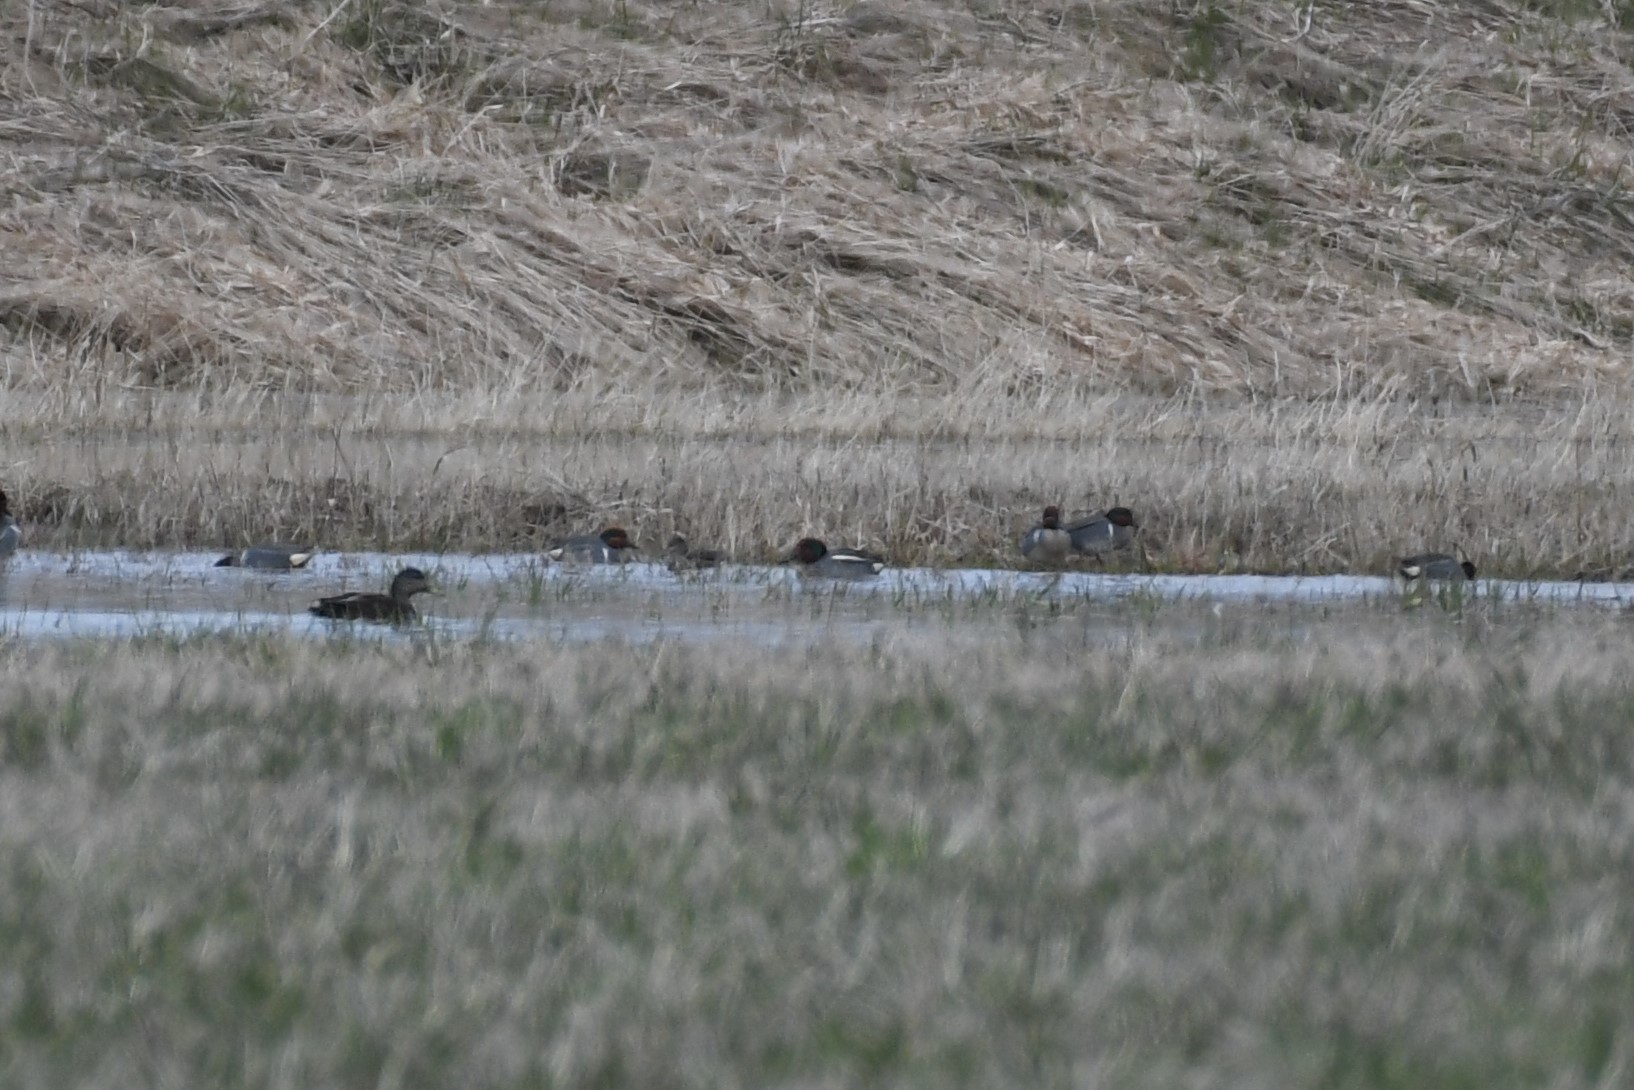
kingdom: Animalia
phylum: Chordata
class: Aves
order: Anseriformes
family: Anatidae
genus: Anas
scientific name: Anas crecca
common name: Eurasian teal
